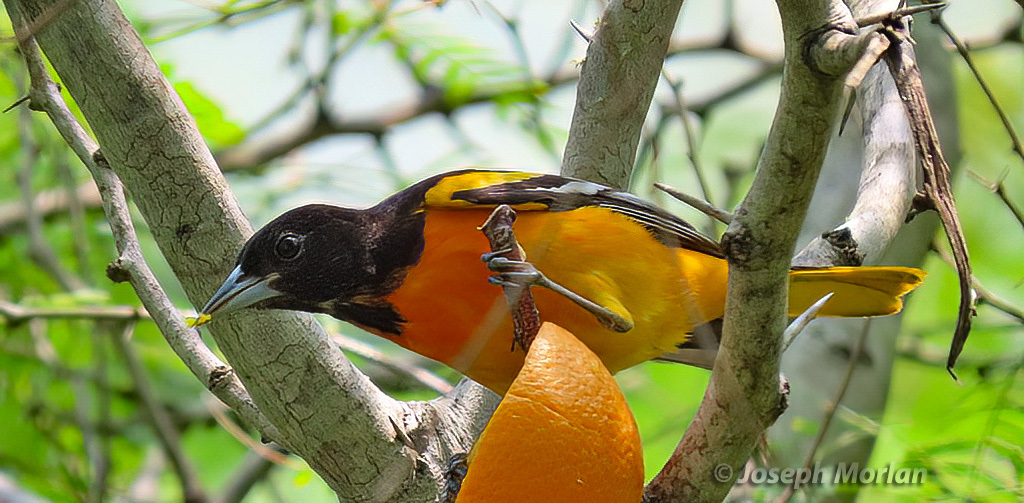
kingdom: Animalia
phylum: Chordata
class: Aves
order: Passeriformes
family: Icteridae
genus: Icterus
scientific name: Icterus galbula
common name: Baltimore oriole
